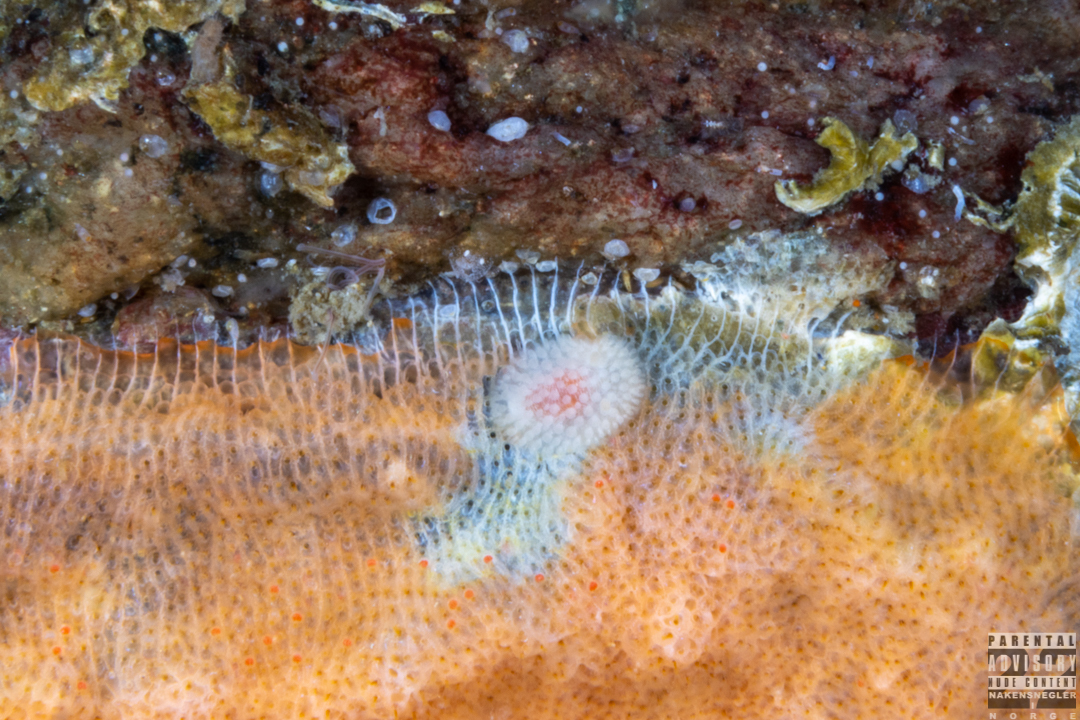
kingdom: Animalia
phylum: Mollusca
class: Gastropoda
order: Nudibranchia
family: Onchidorididae
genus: Onchidoris
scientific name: Onchidoris muricata
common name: Rough doris
